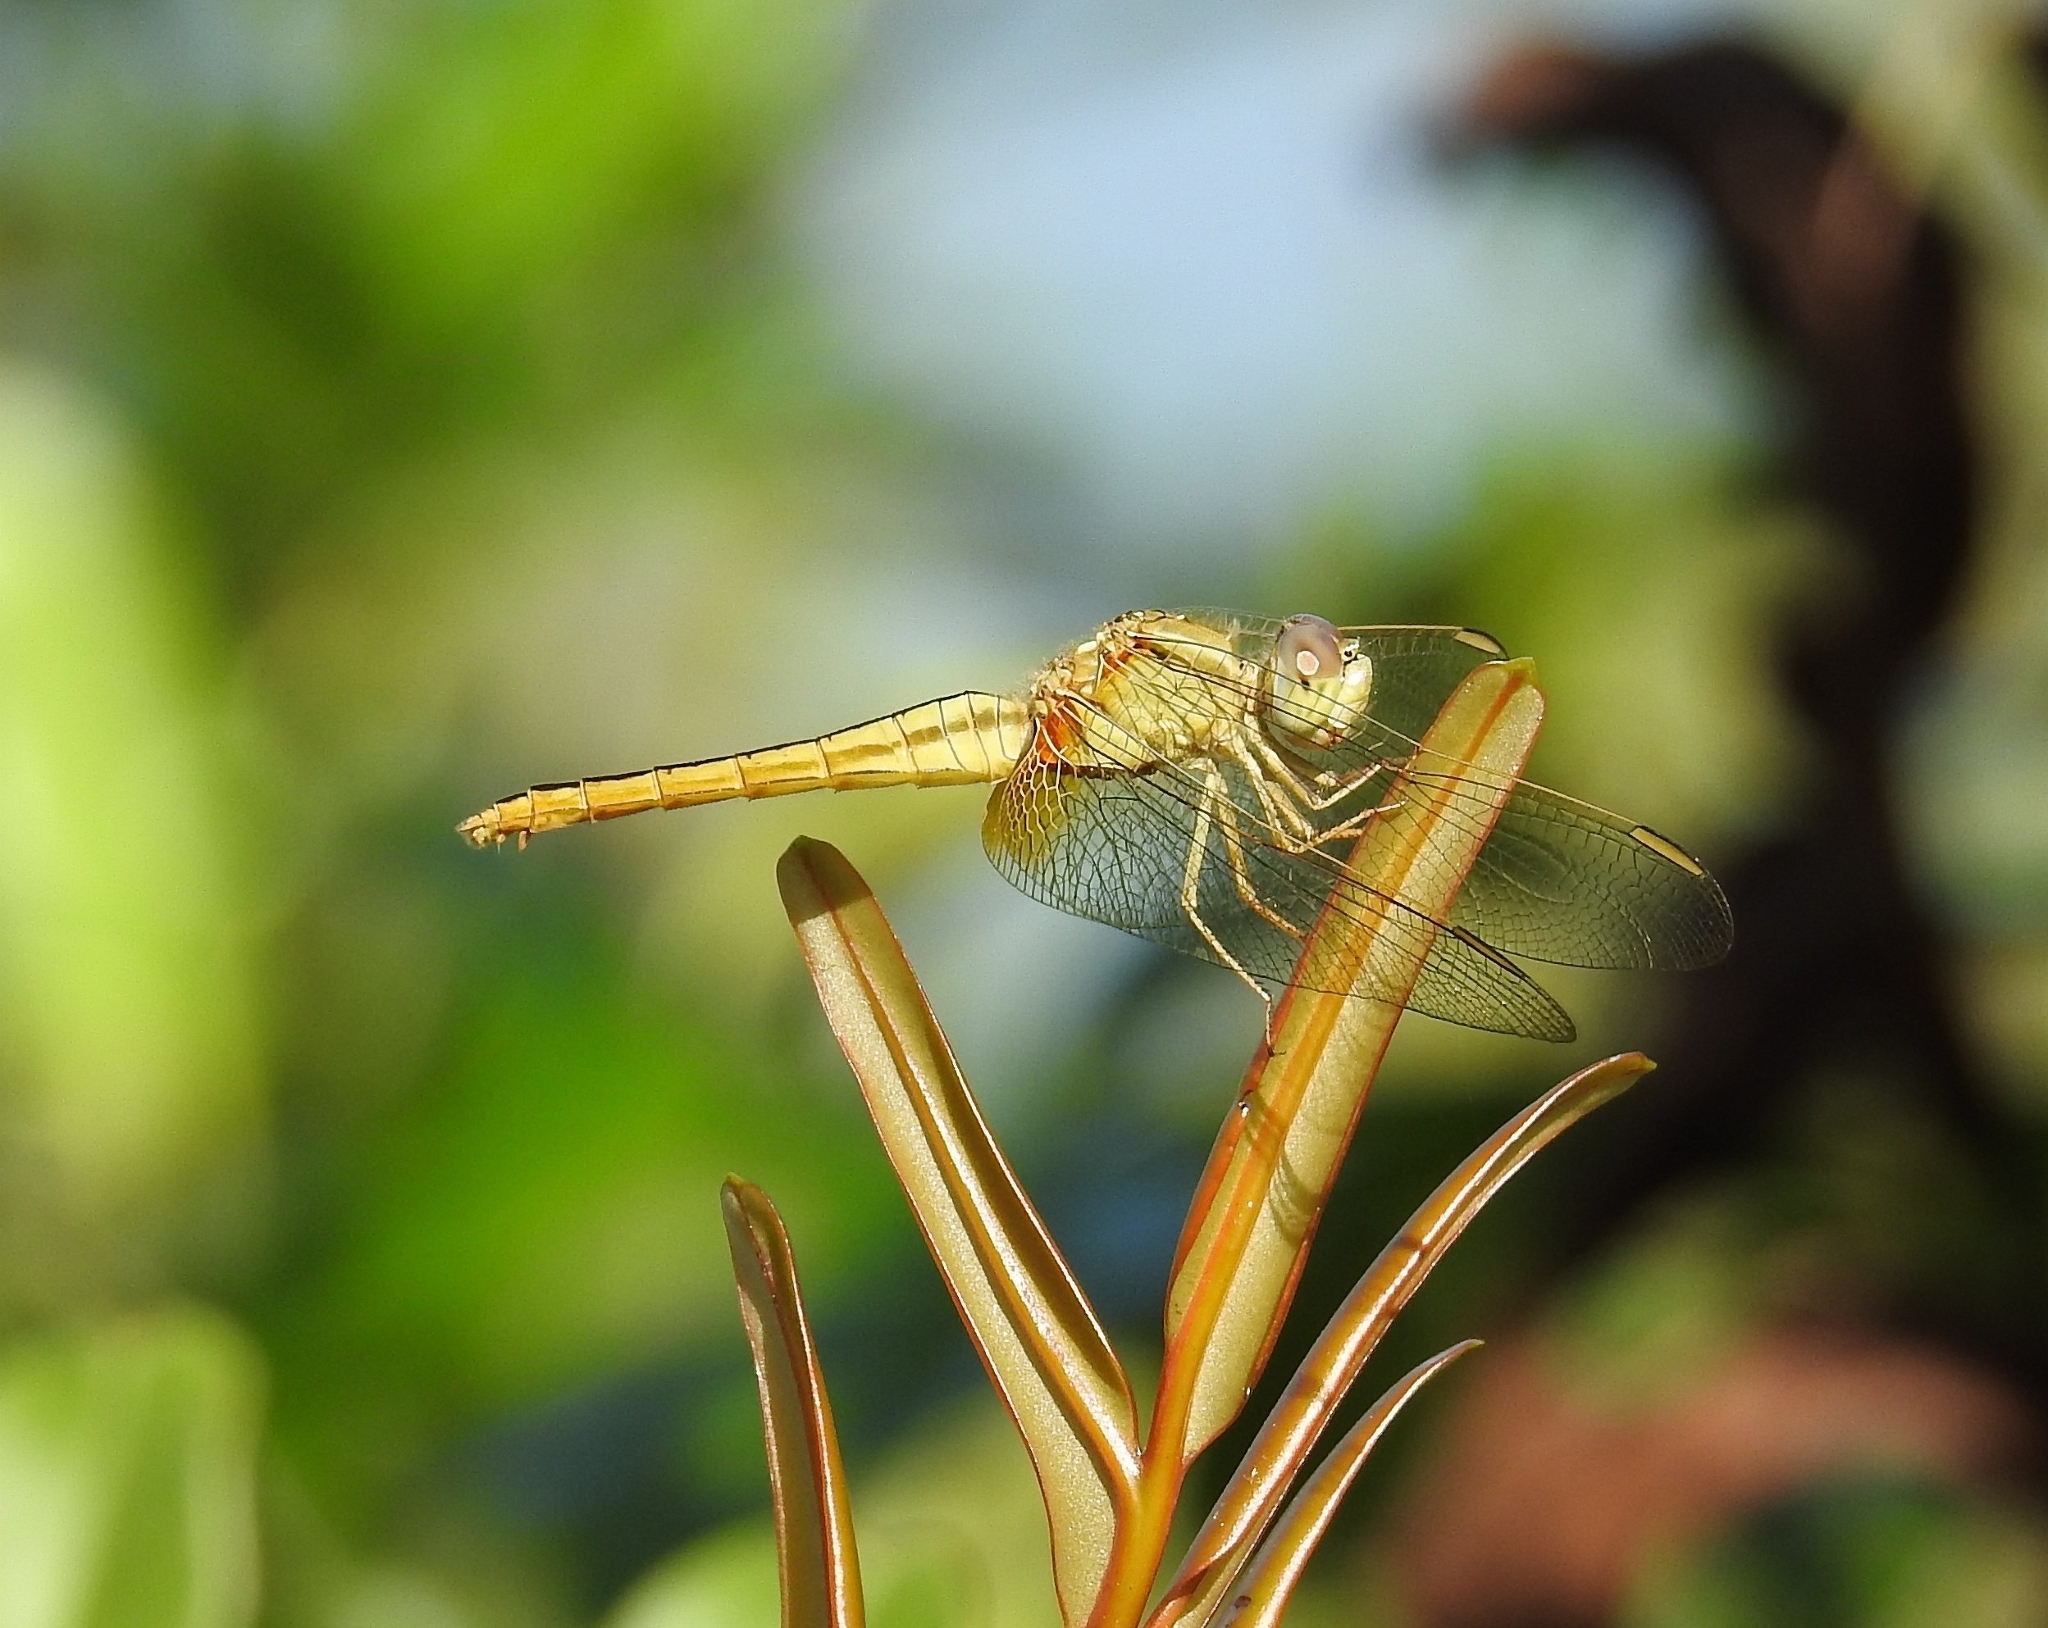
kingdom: Animalia
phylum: Arthropoda
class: Insecta
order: Odonata
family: Libellulidae
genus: Crocothemis
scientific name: Crocothemis servilia
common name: Scarlet skimmer
